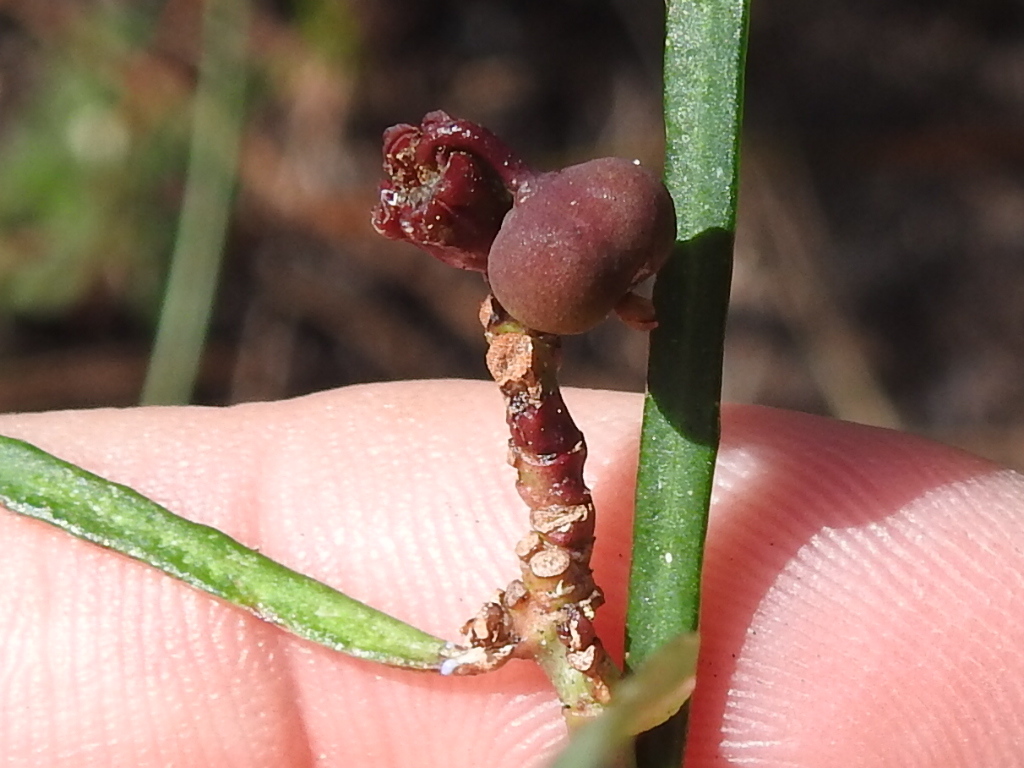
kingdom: Plantae
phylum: Tracheophyta
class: Magnoliopsida
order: Malpighiales
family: Euphorbiaceae
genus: Euphorbia
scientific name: Euphorbia pinetorum
